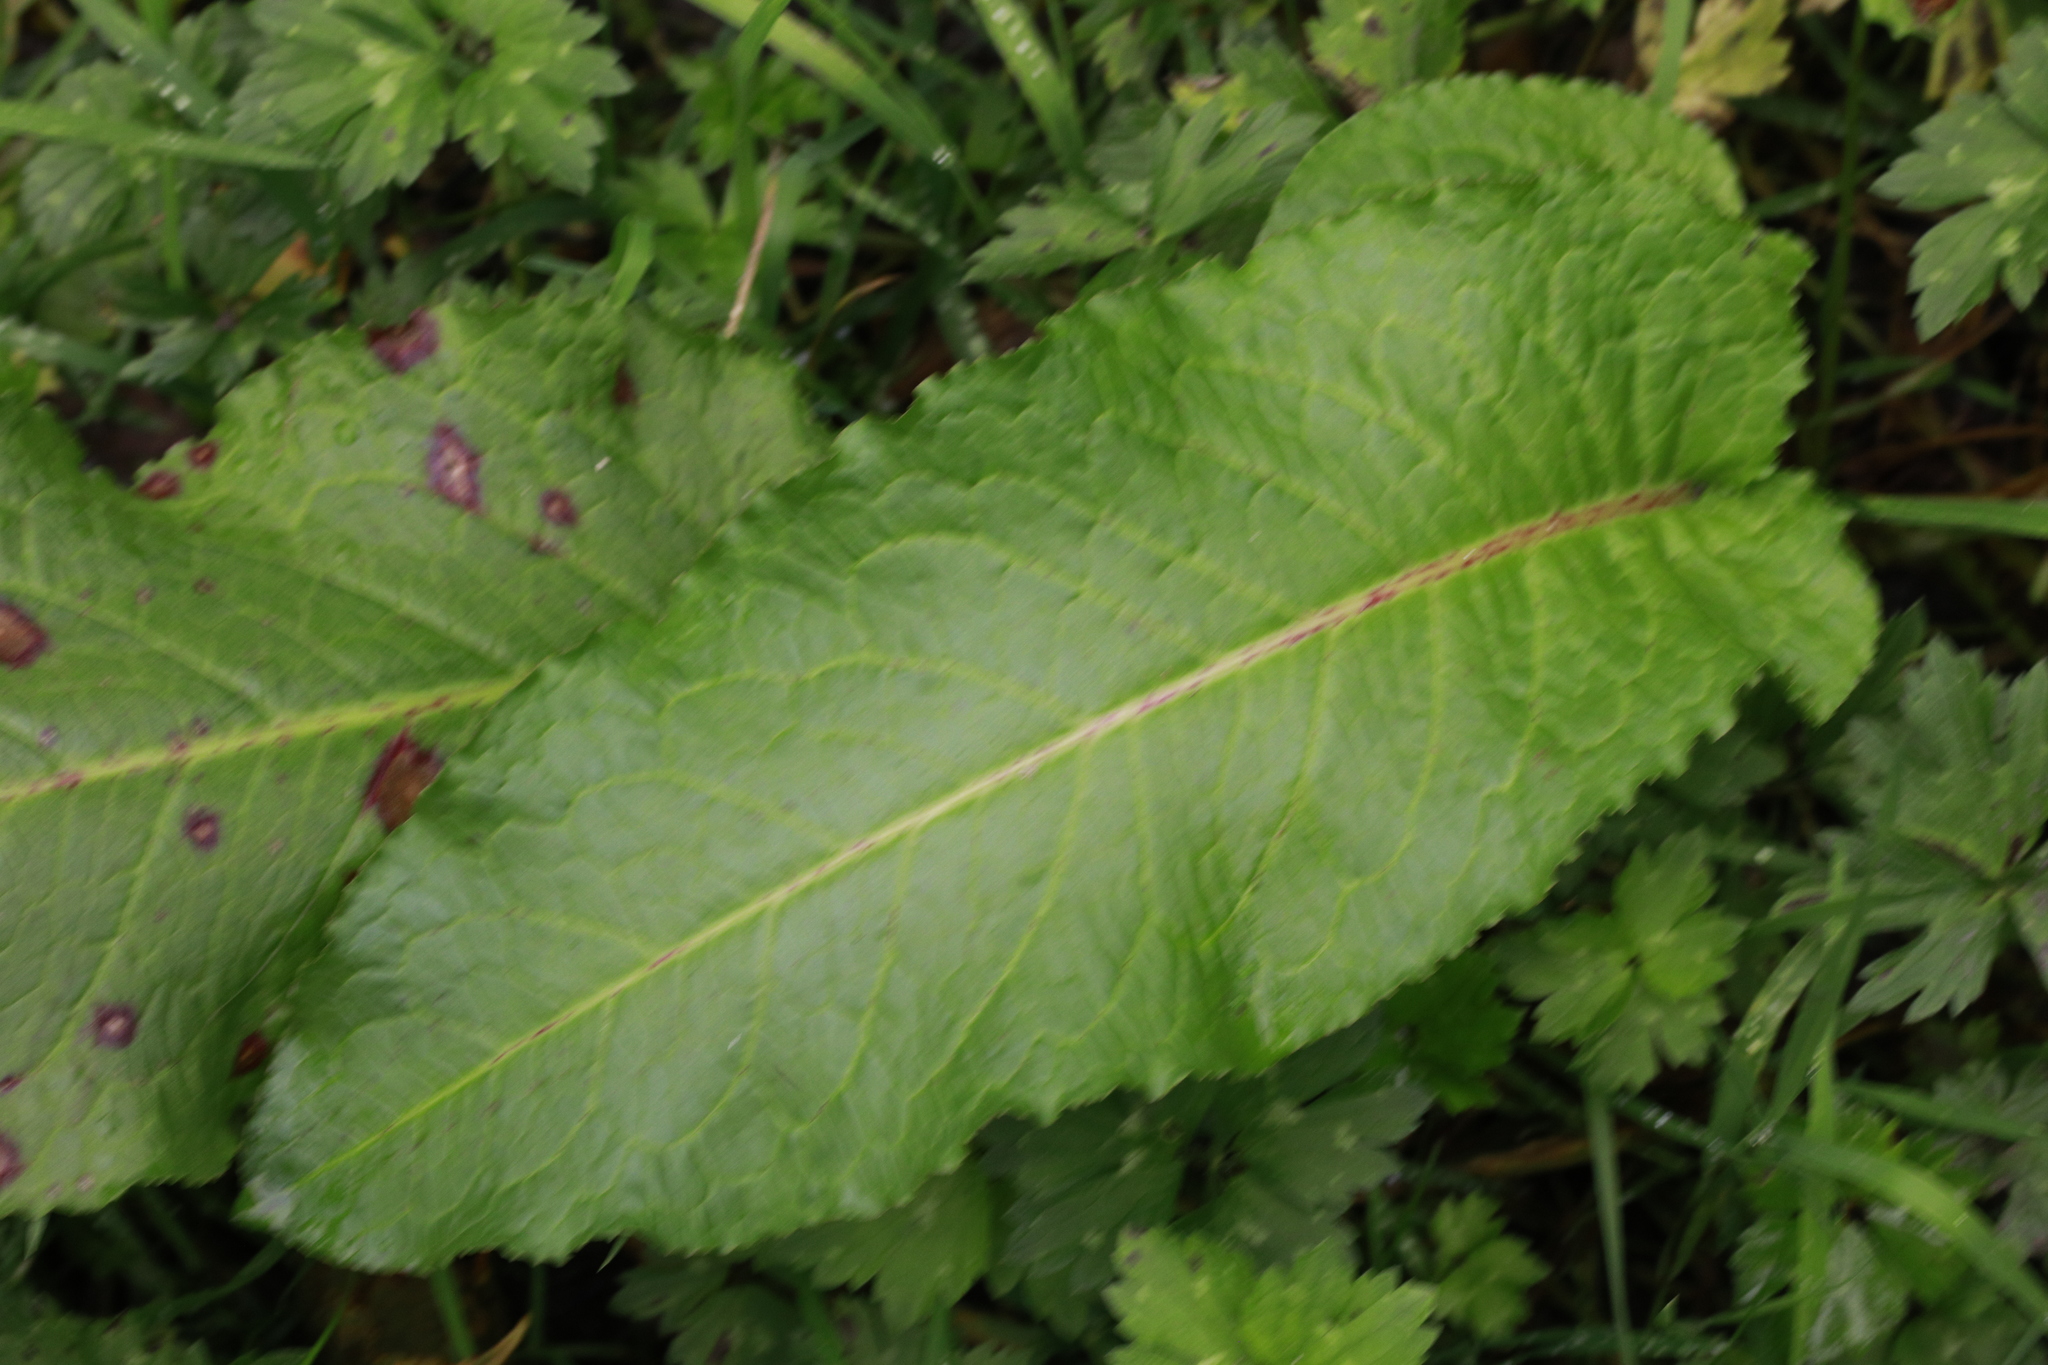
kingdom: Plantae
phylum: Tracheophyta
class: Magnoliopsida
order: Caryophyllales
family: Polygonaceae
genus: Rumex
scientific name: Rumex obtusifolius
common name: Bitter dock
